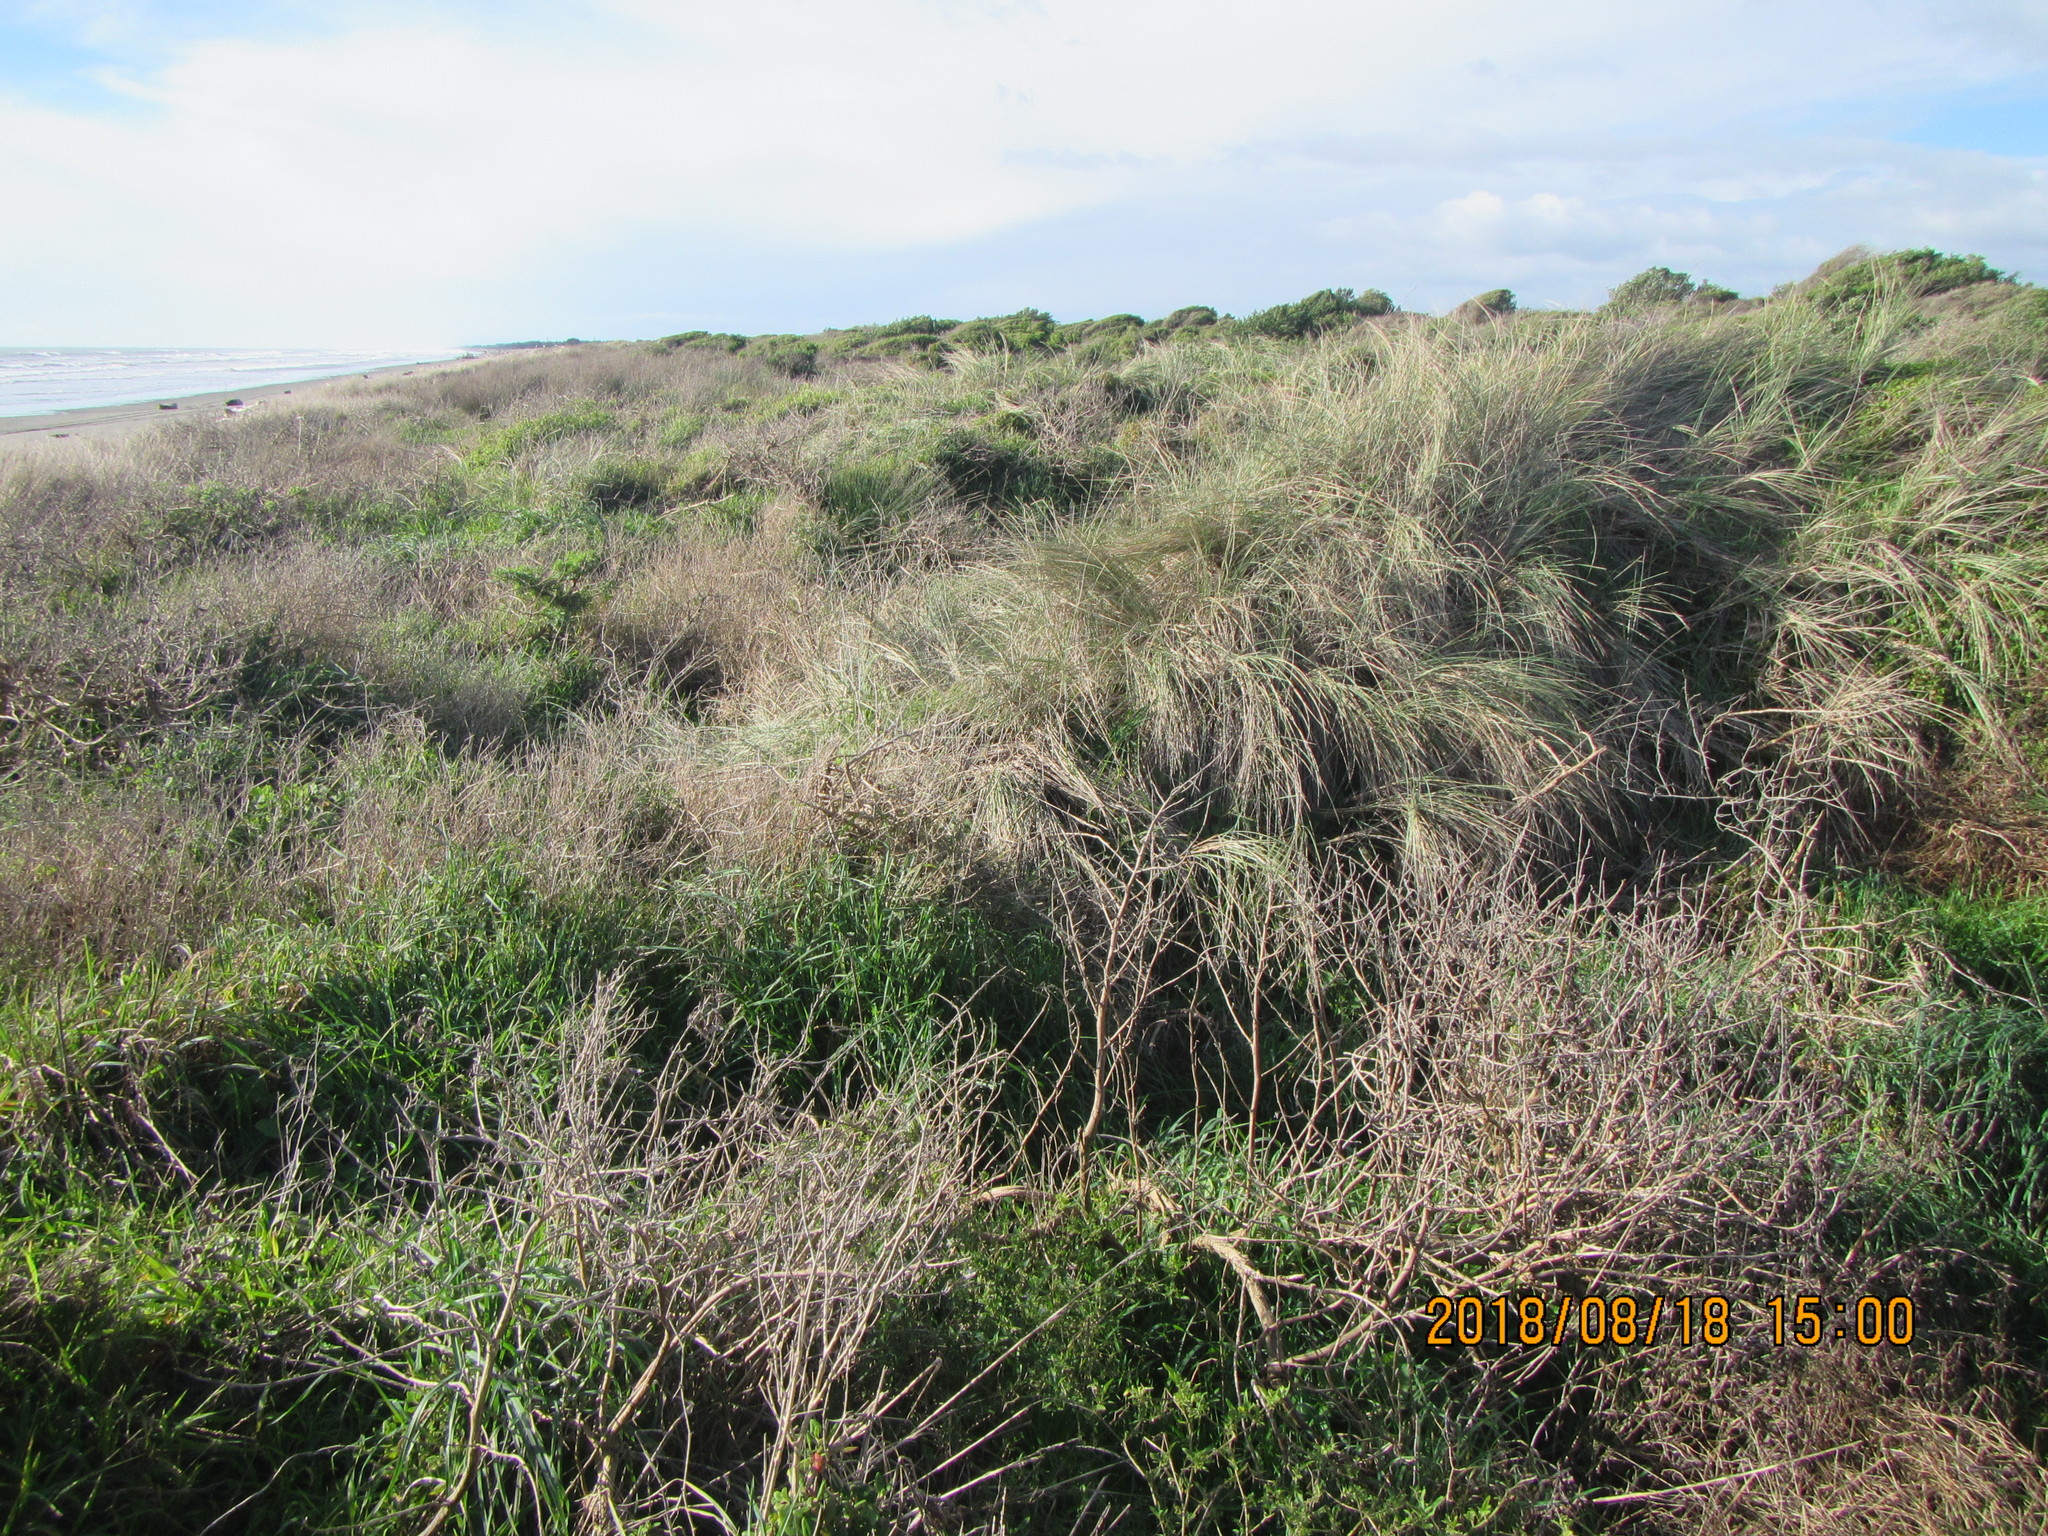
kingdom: Plantae
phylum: Tracheophyta
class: Liliopsida
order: Poales
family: Poaceae
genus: Calamagrostis
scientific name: Calamagrostis arenaria
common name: European beachgrass
